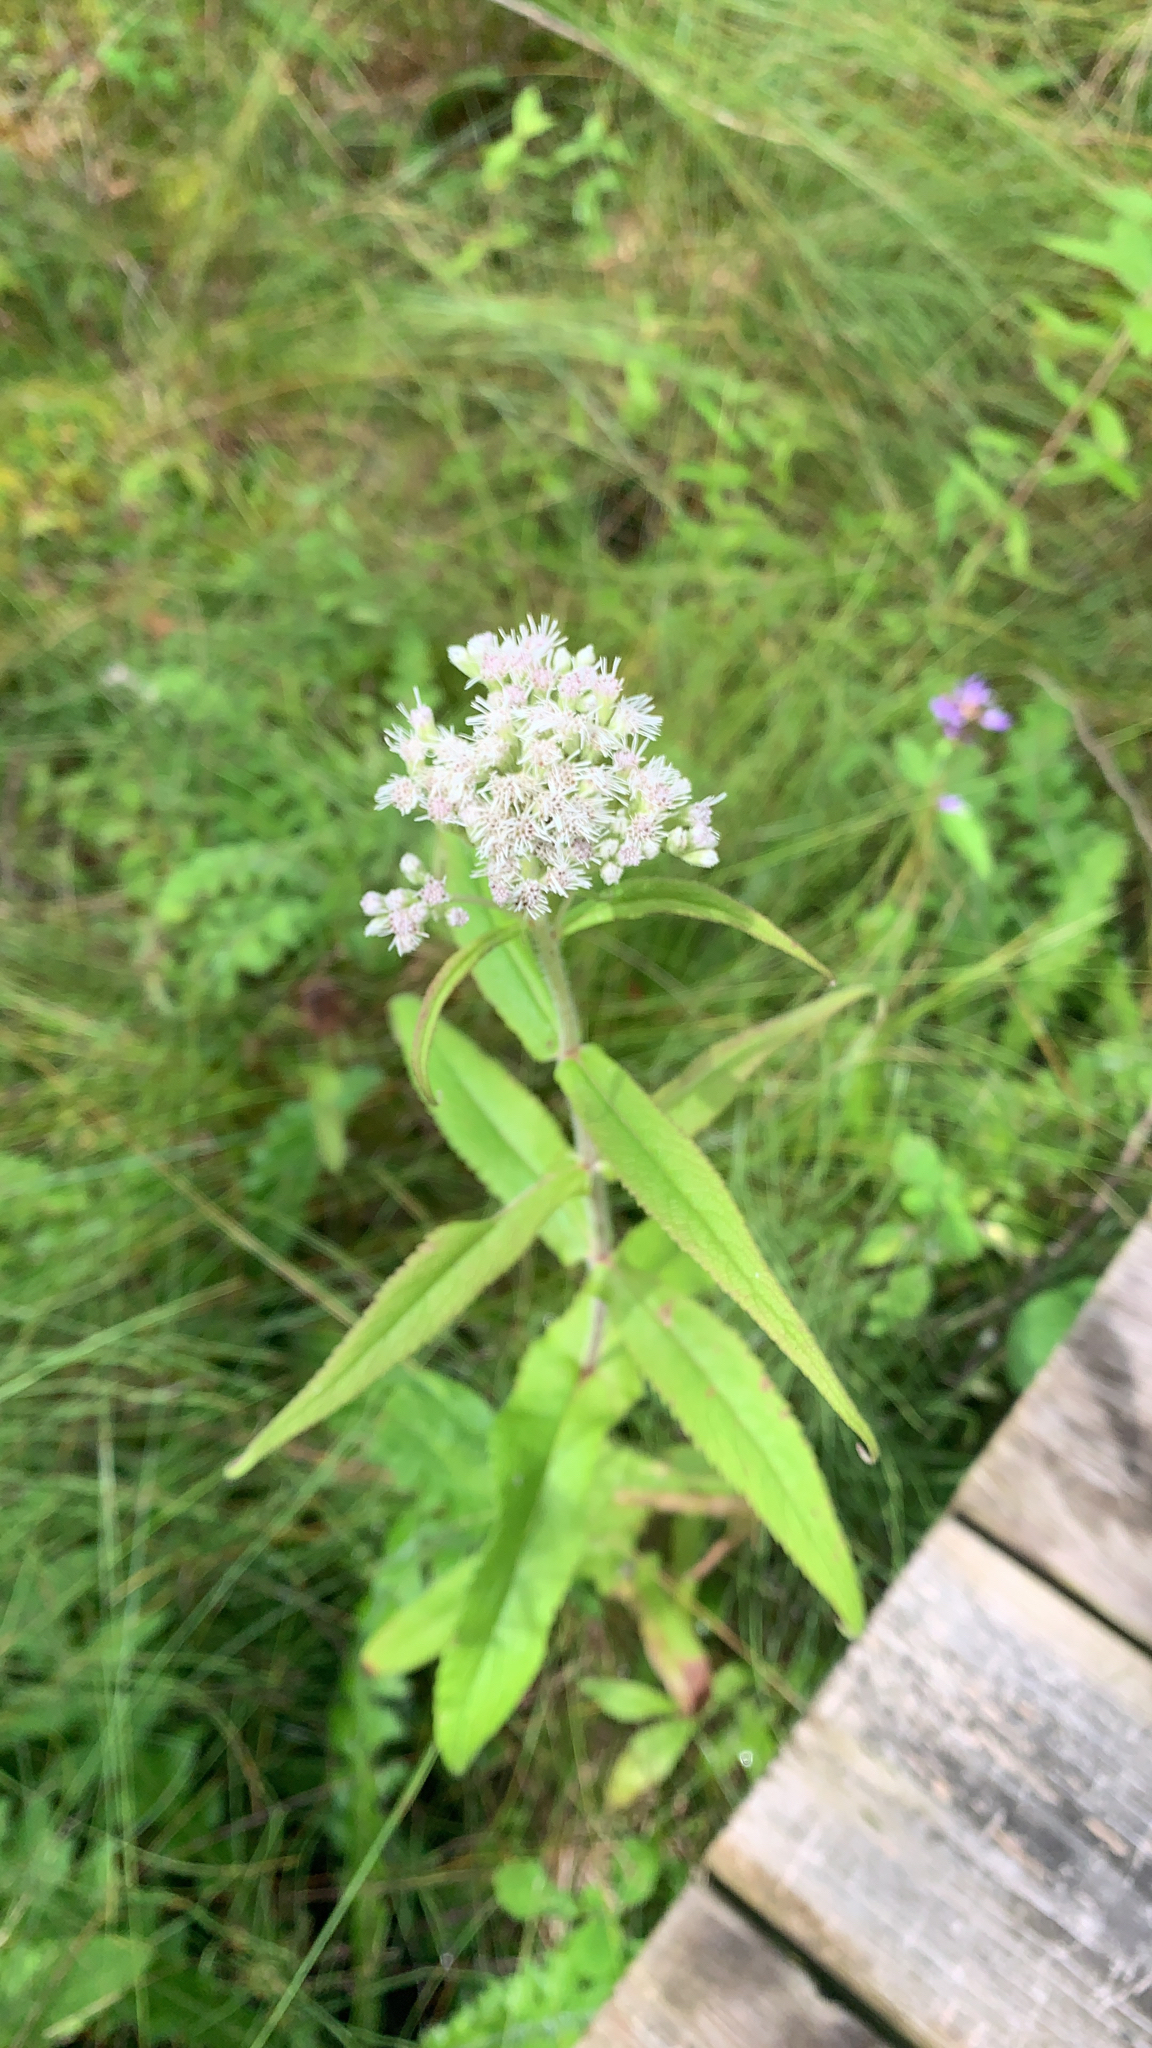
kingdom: Plantae
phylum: Tracheophyta
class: Magnoliopsida
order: Asterales
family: Asteraceae
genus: Eupatorium
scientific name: Eupatorium perfoliatum
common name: Boneset
